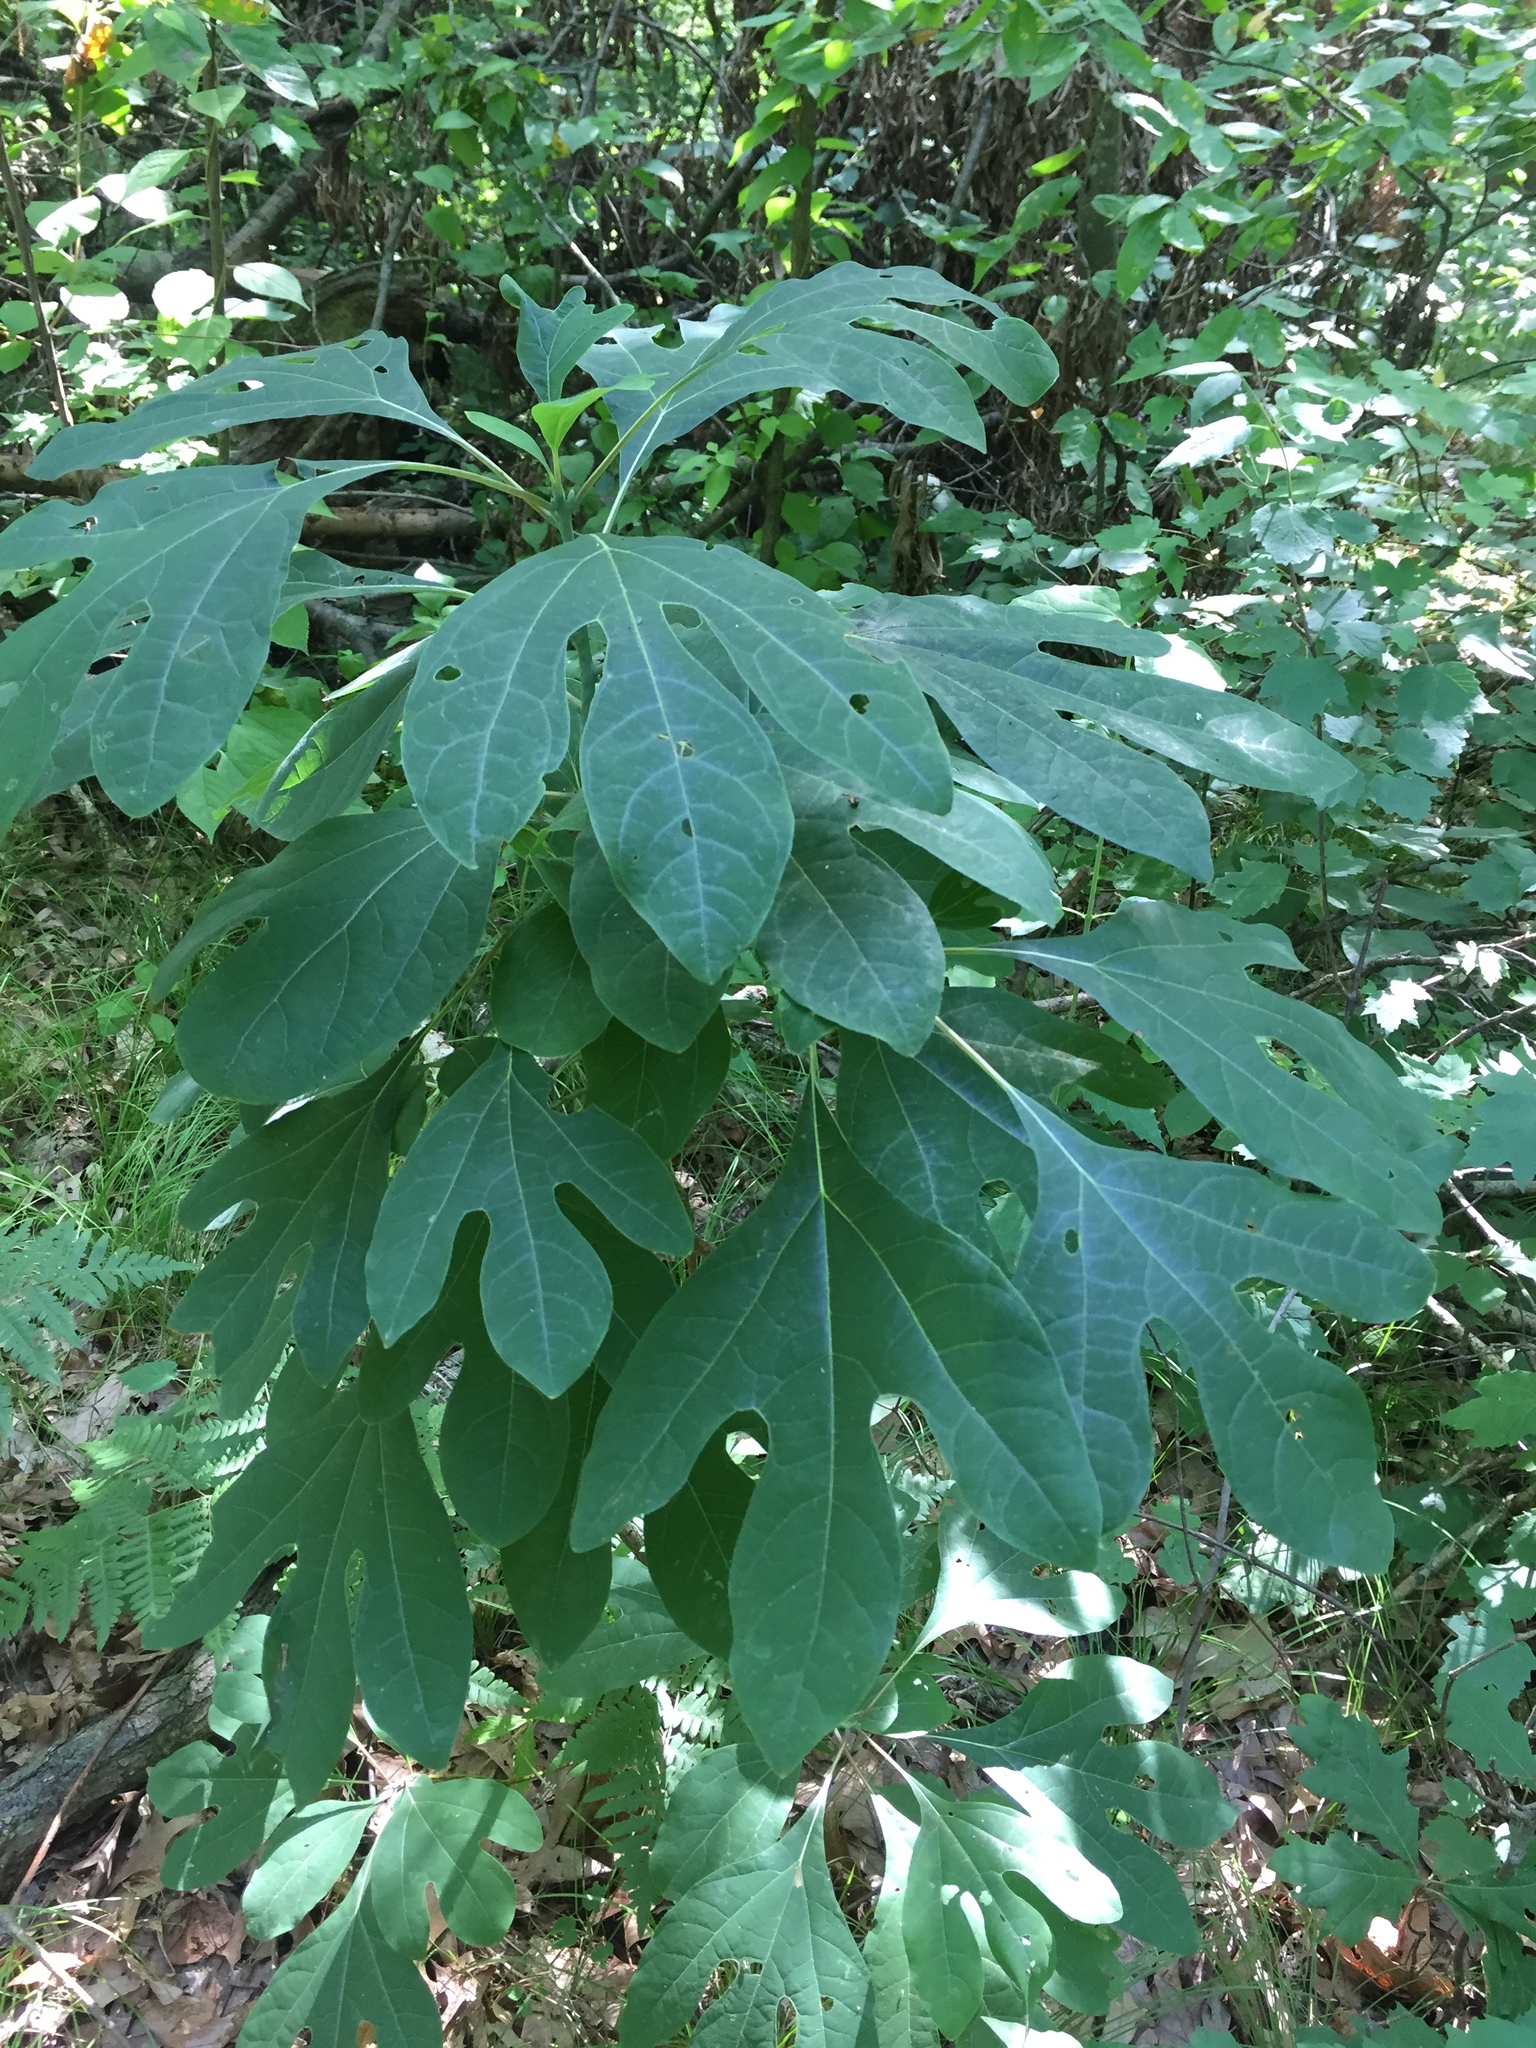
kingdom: Plantae
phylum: Tracheophyta
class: Magnoliopsida
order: Laurales
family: Lauraceae
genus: Sassafras
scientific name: Sassafras albidum
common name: Sassafras
